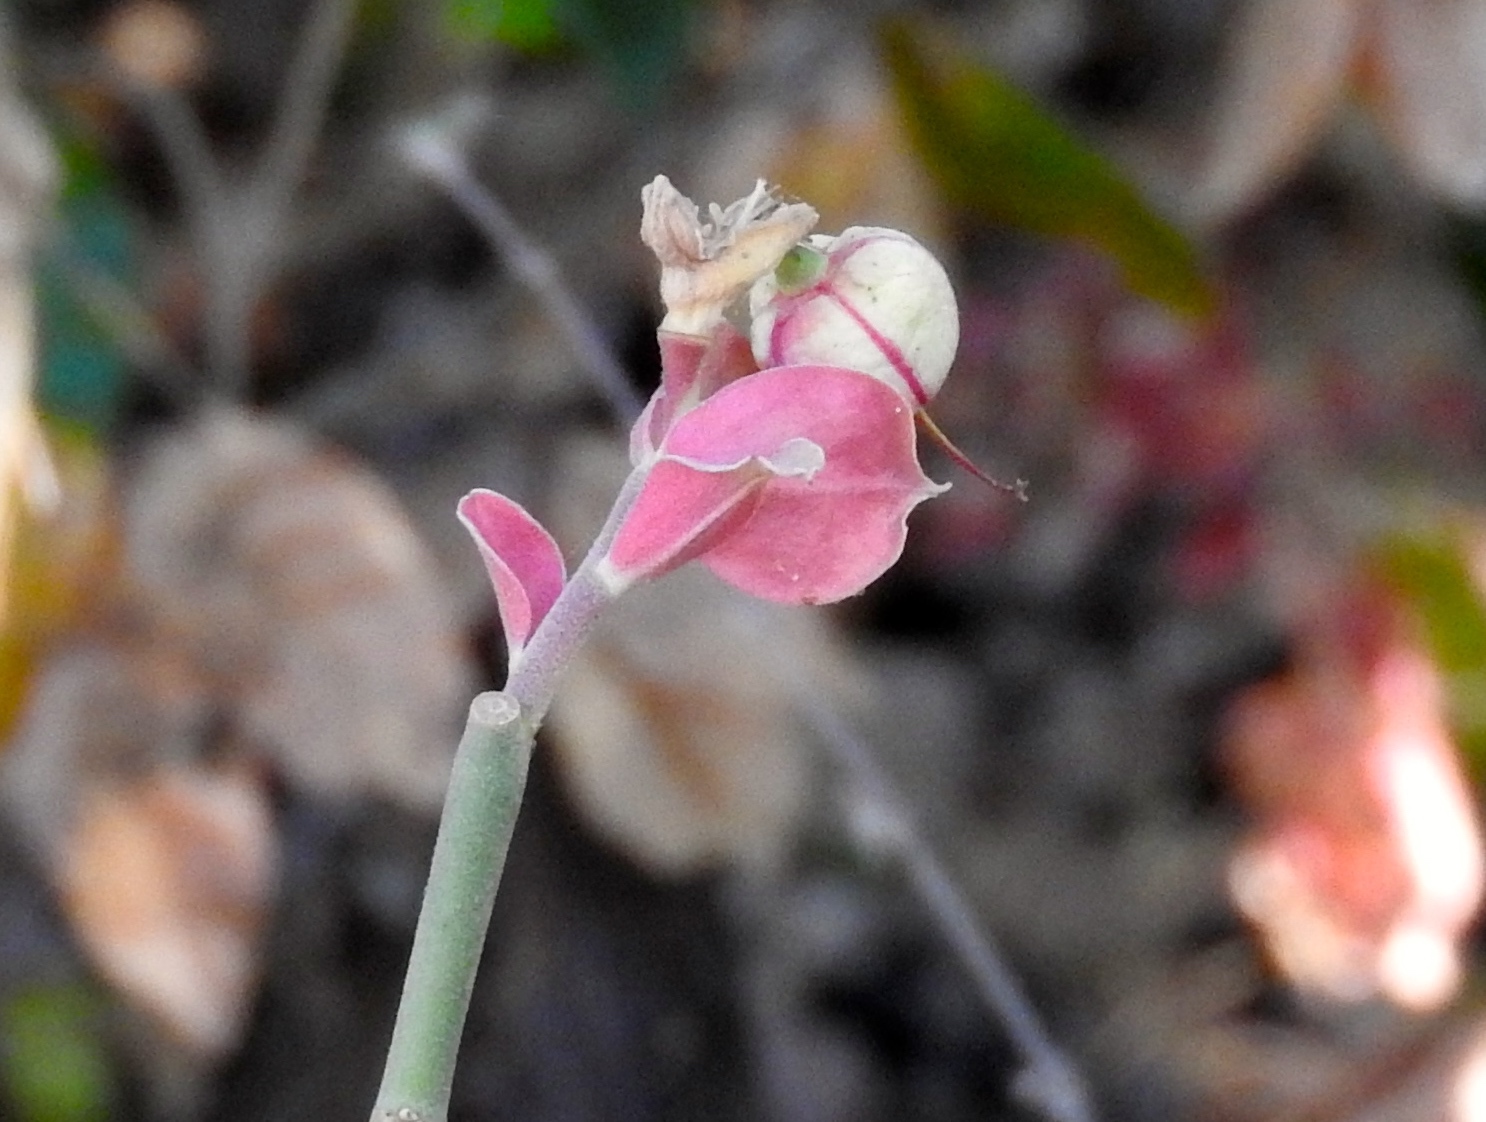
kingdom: Plantae
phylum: Tracheophyta
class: Magnoliopsida
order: Malpighiales
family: Euphorbiaceae
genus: Euphorbia
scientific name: Euphorbia bracteata
